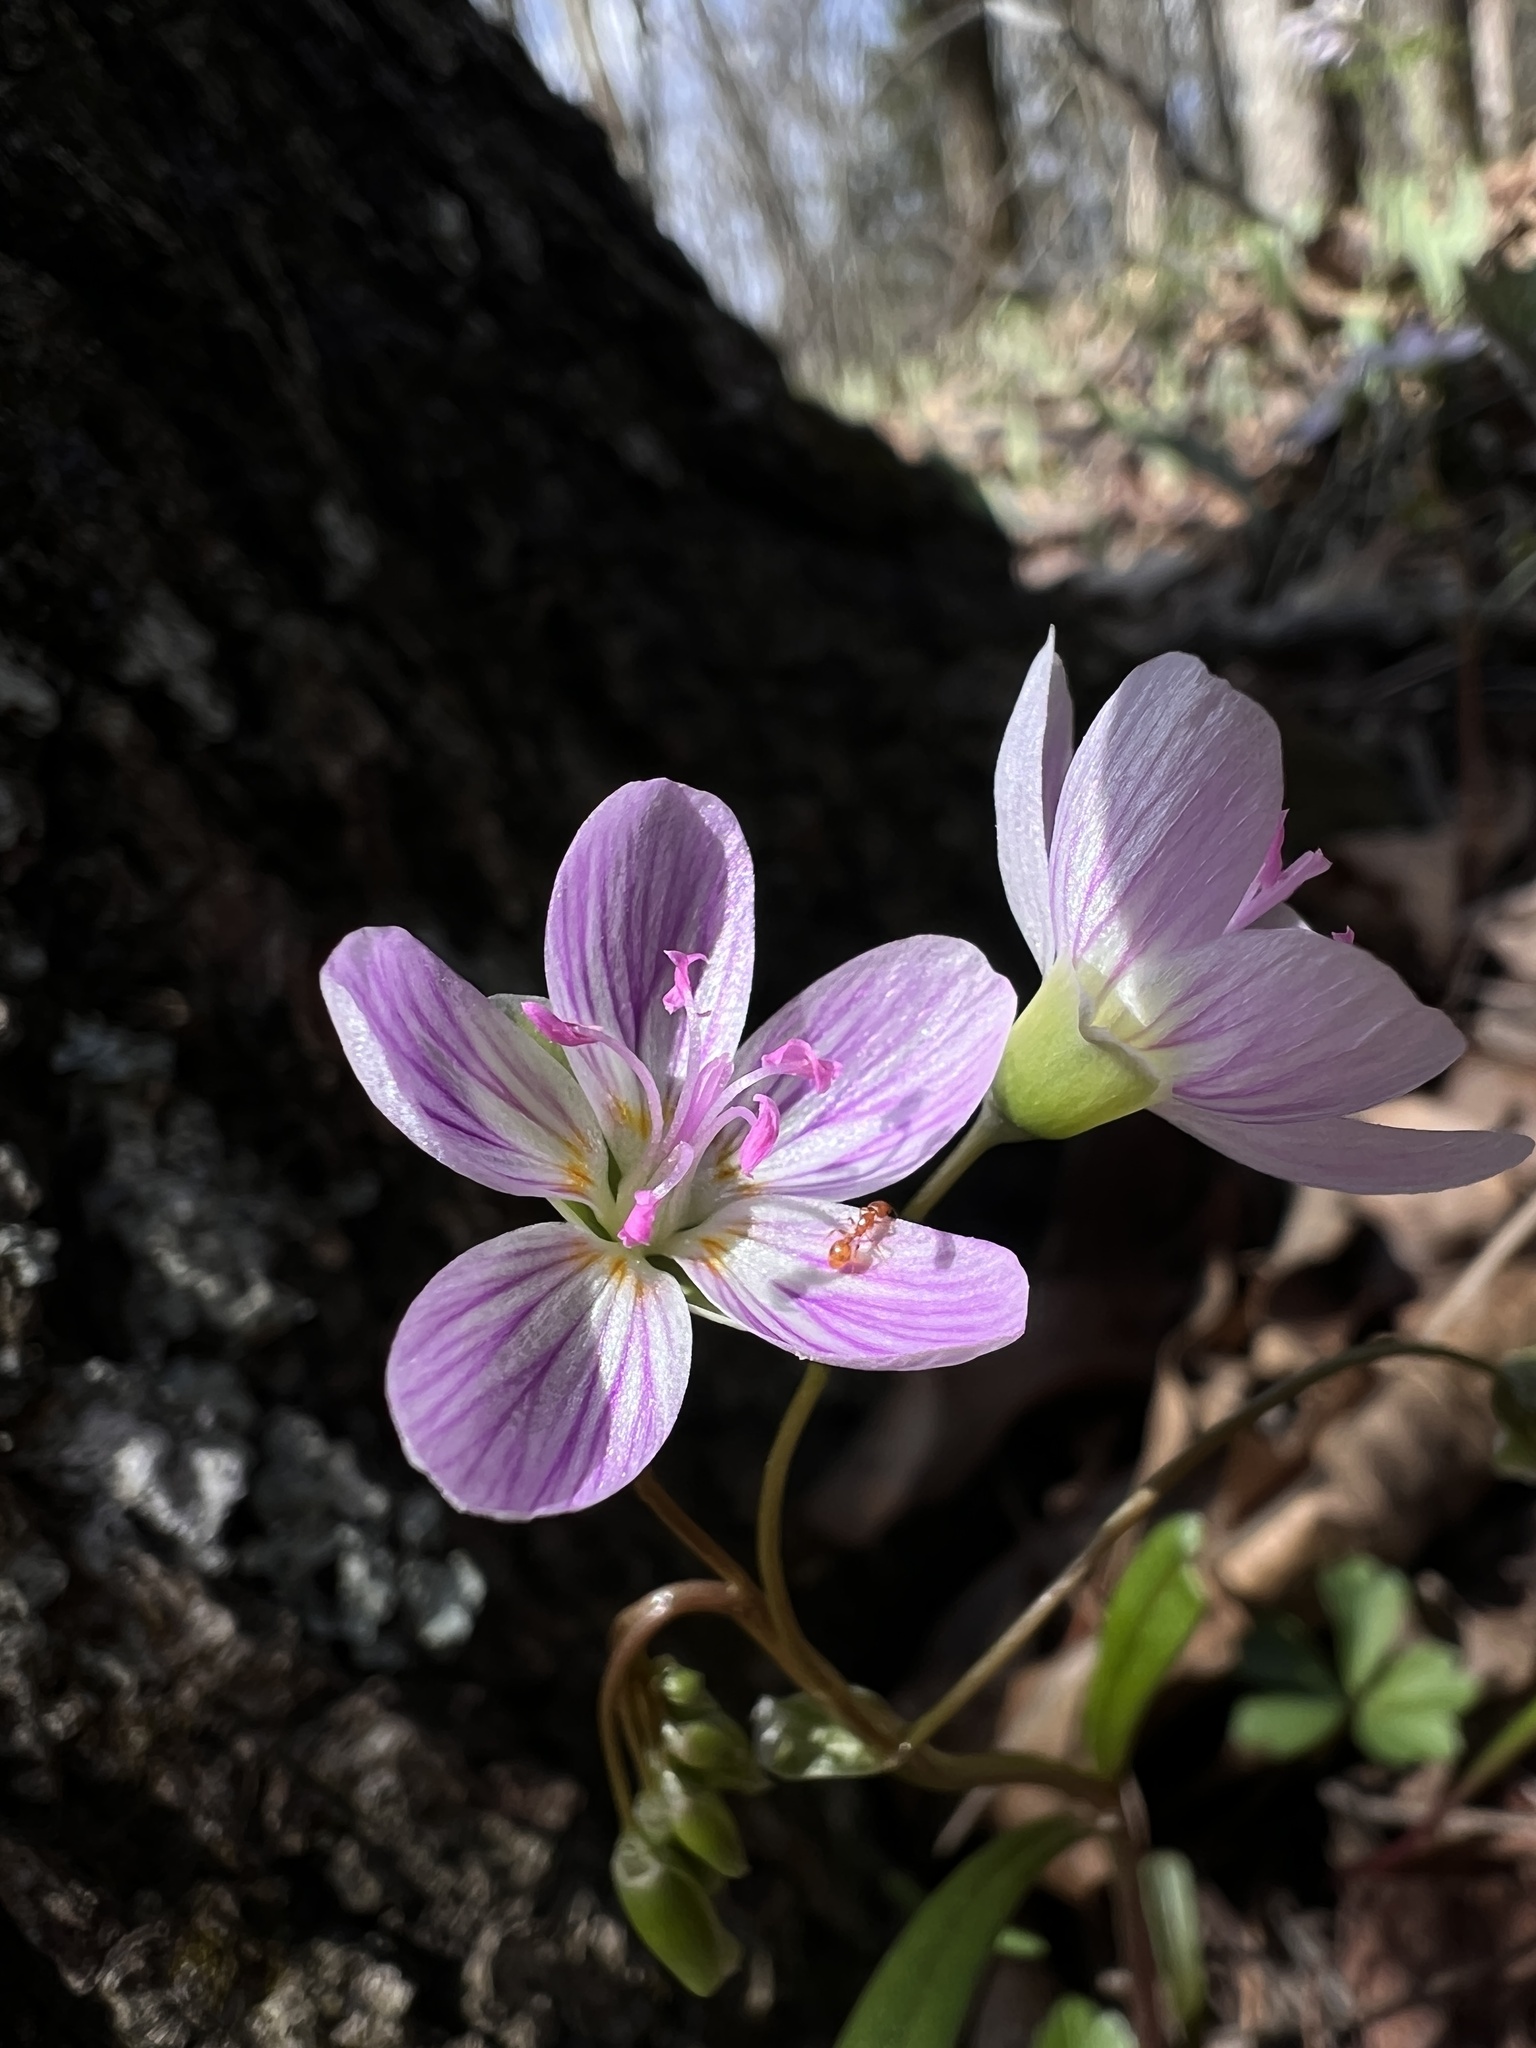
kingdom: Plantae
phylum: Tracheophyta
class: Magnoliopsida
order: Caryophyllales
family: Montiaceae
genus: Claytonia
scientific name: Claytonia virginica
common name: Virginia springbeauty
